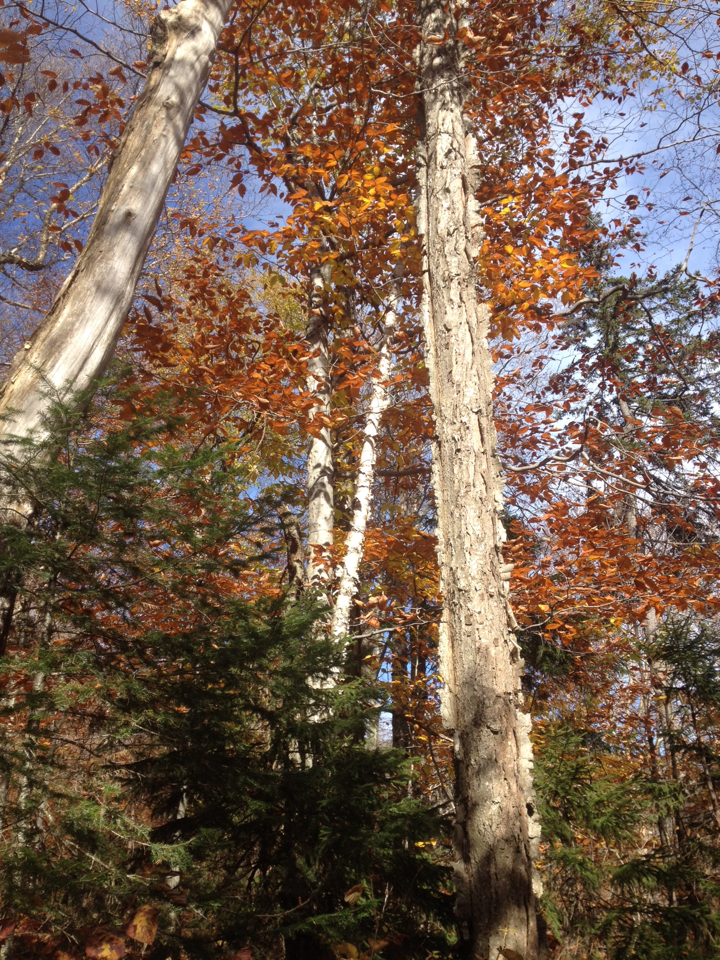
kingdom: Plantae
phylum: Tracheophyta
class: Magnoliopsida
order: Fagales
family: Betulaceae
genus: Betula
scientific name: Betula alleghaniensis
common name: Yellow birch
